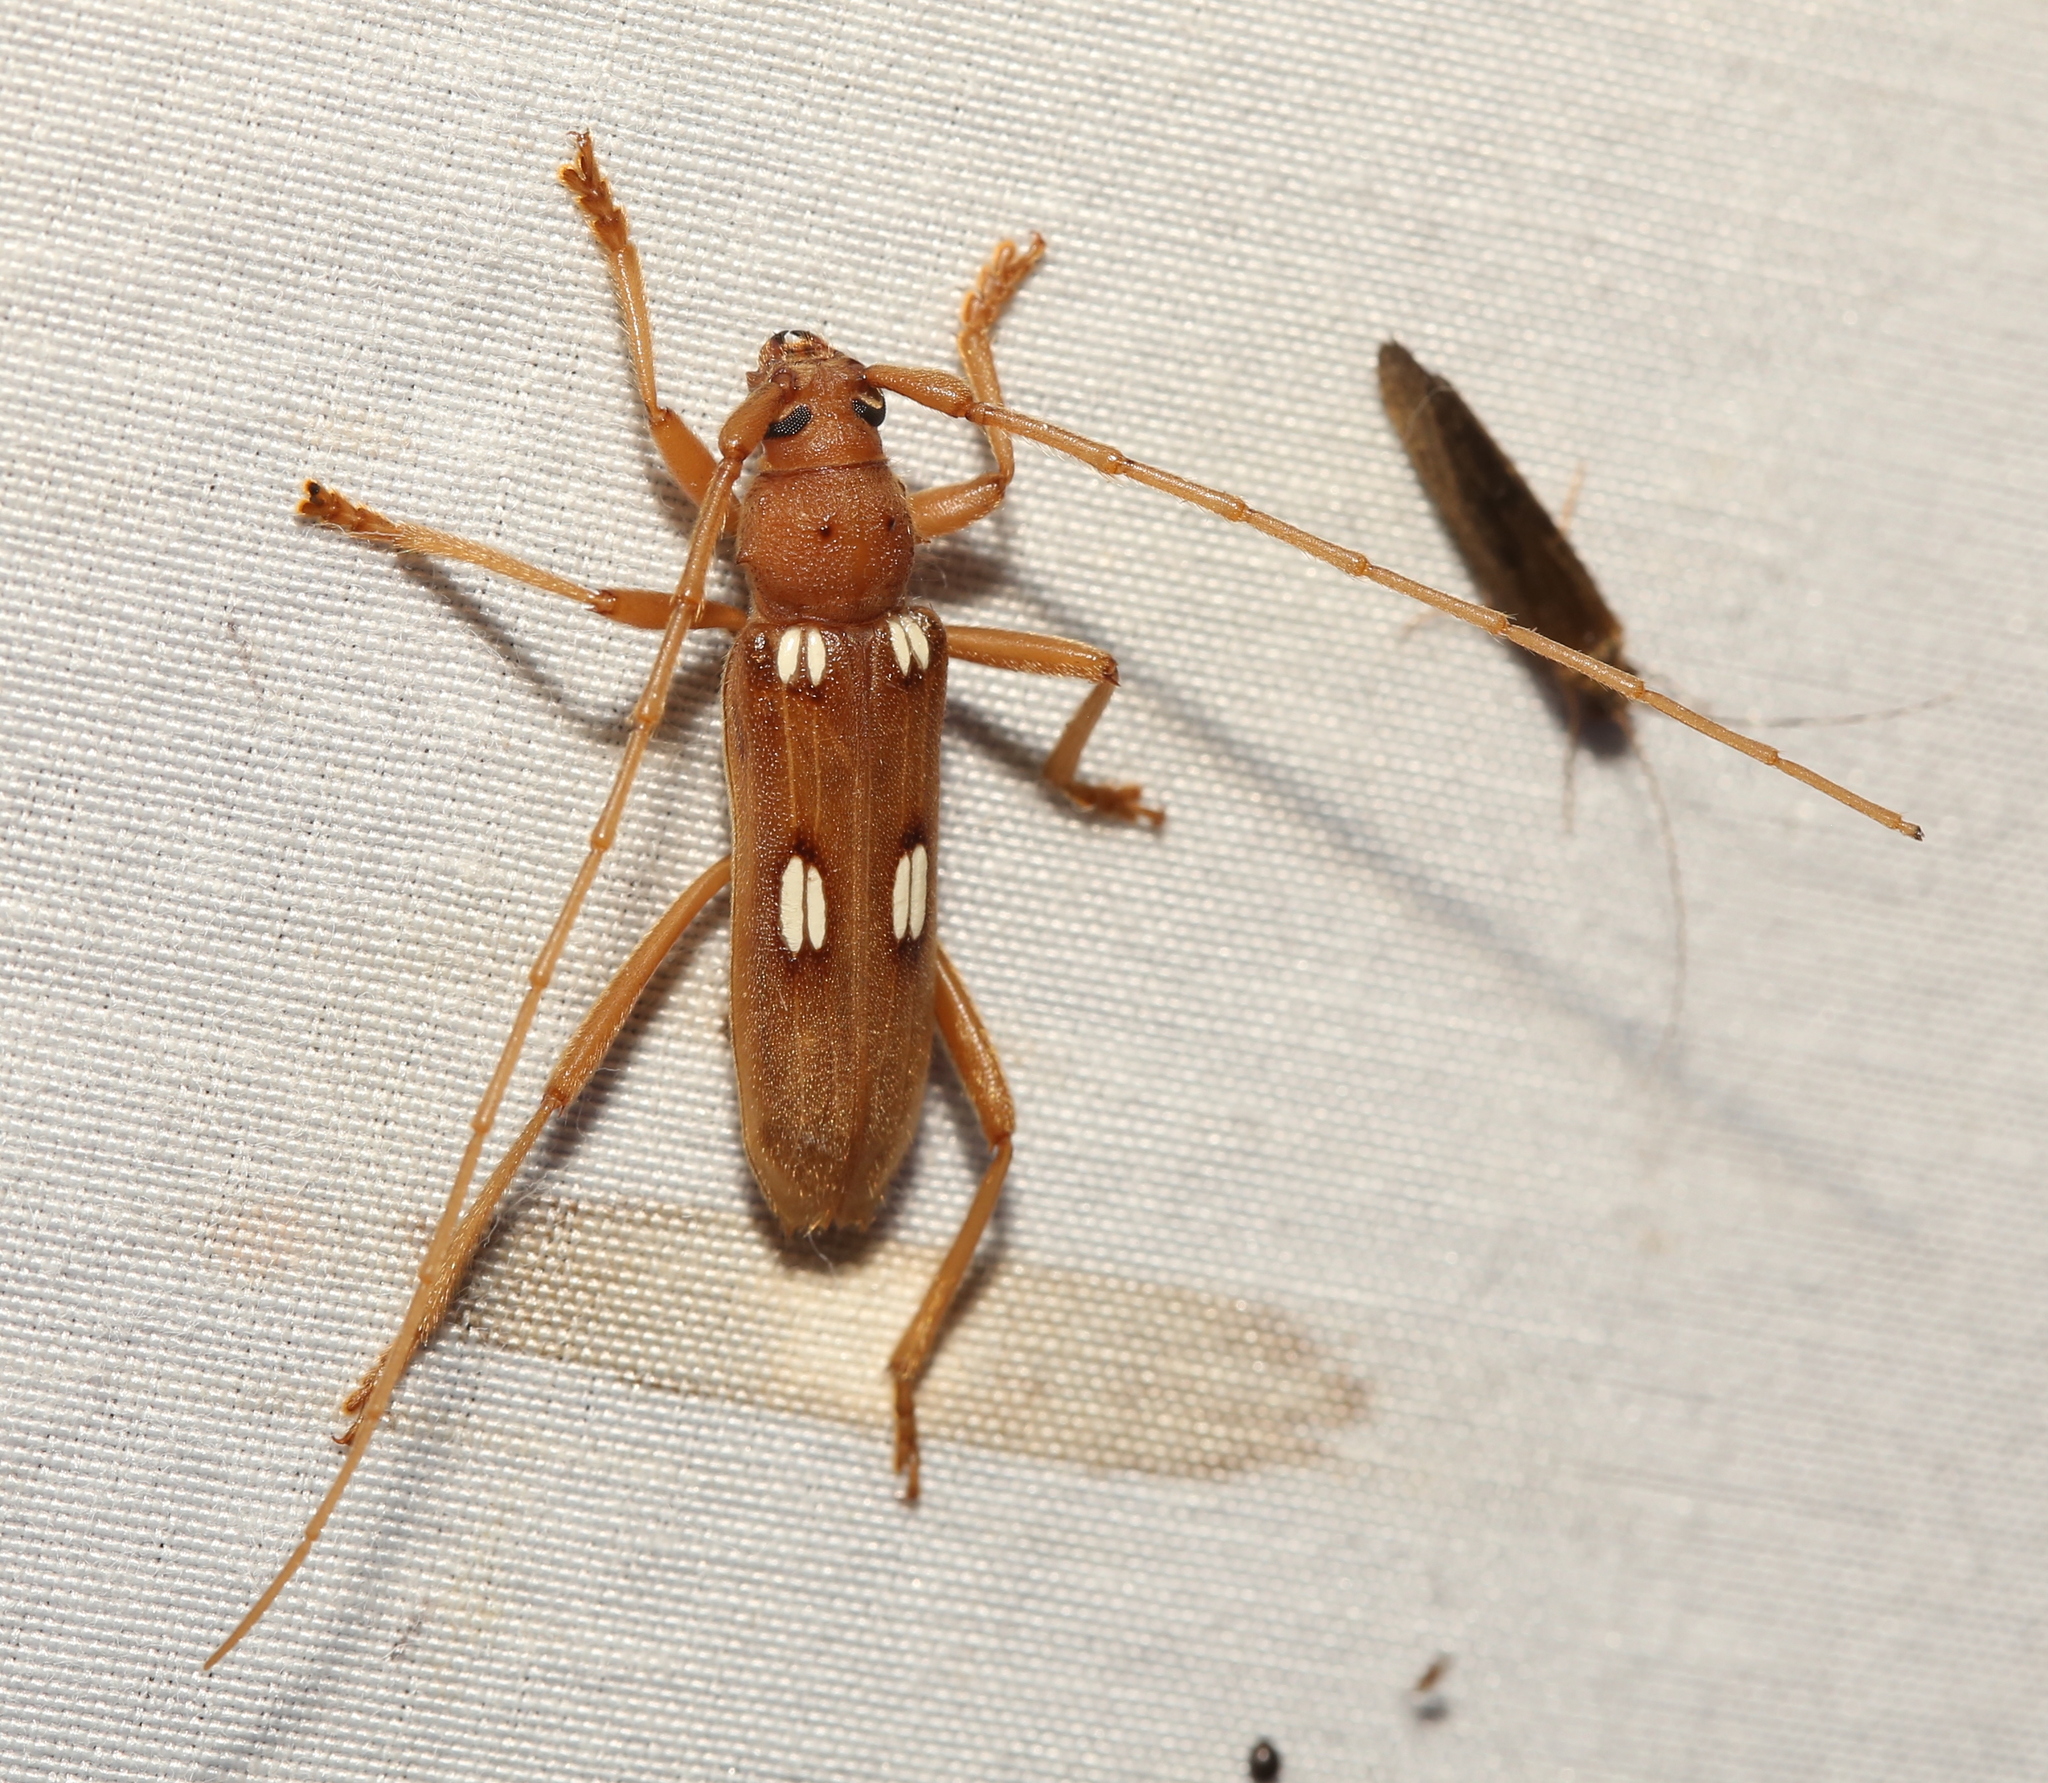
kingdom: Animalia
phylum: Arthropoda
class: Insecta
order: Coleoptera
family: Cerambycidae
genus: Eburia
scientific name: Eburia quadrigeminata
